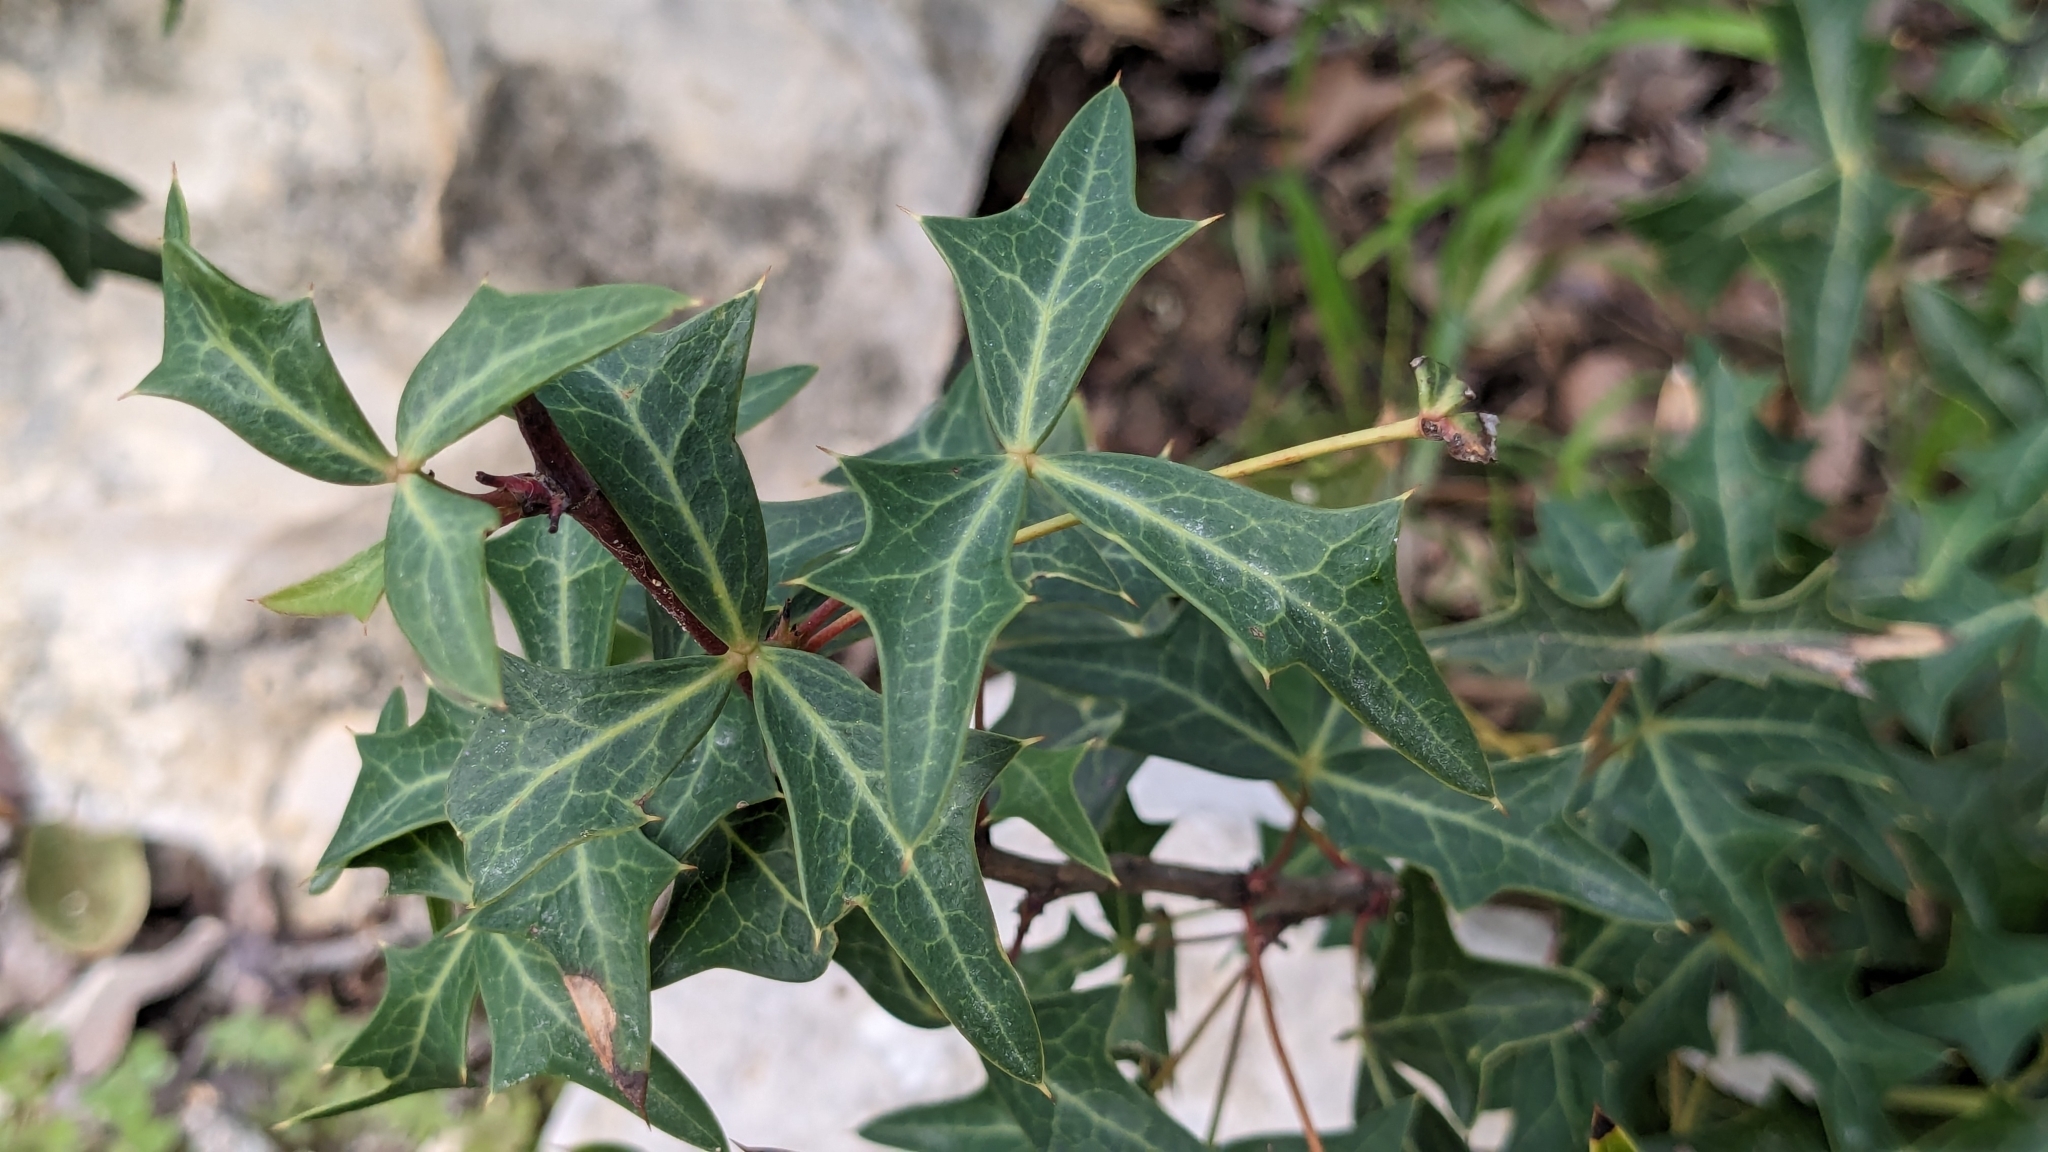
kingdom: Plantae
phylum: Tracheophyta
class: Magnoliopsida
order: Ranunculales
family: Berberidaceae
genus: Alloberberis
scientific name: Alloberberis trifoliolata
